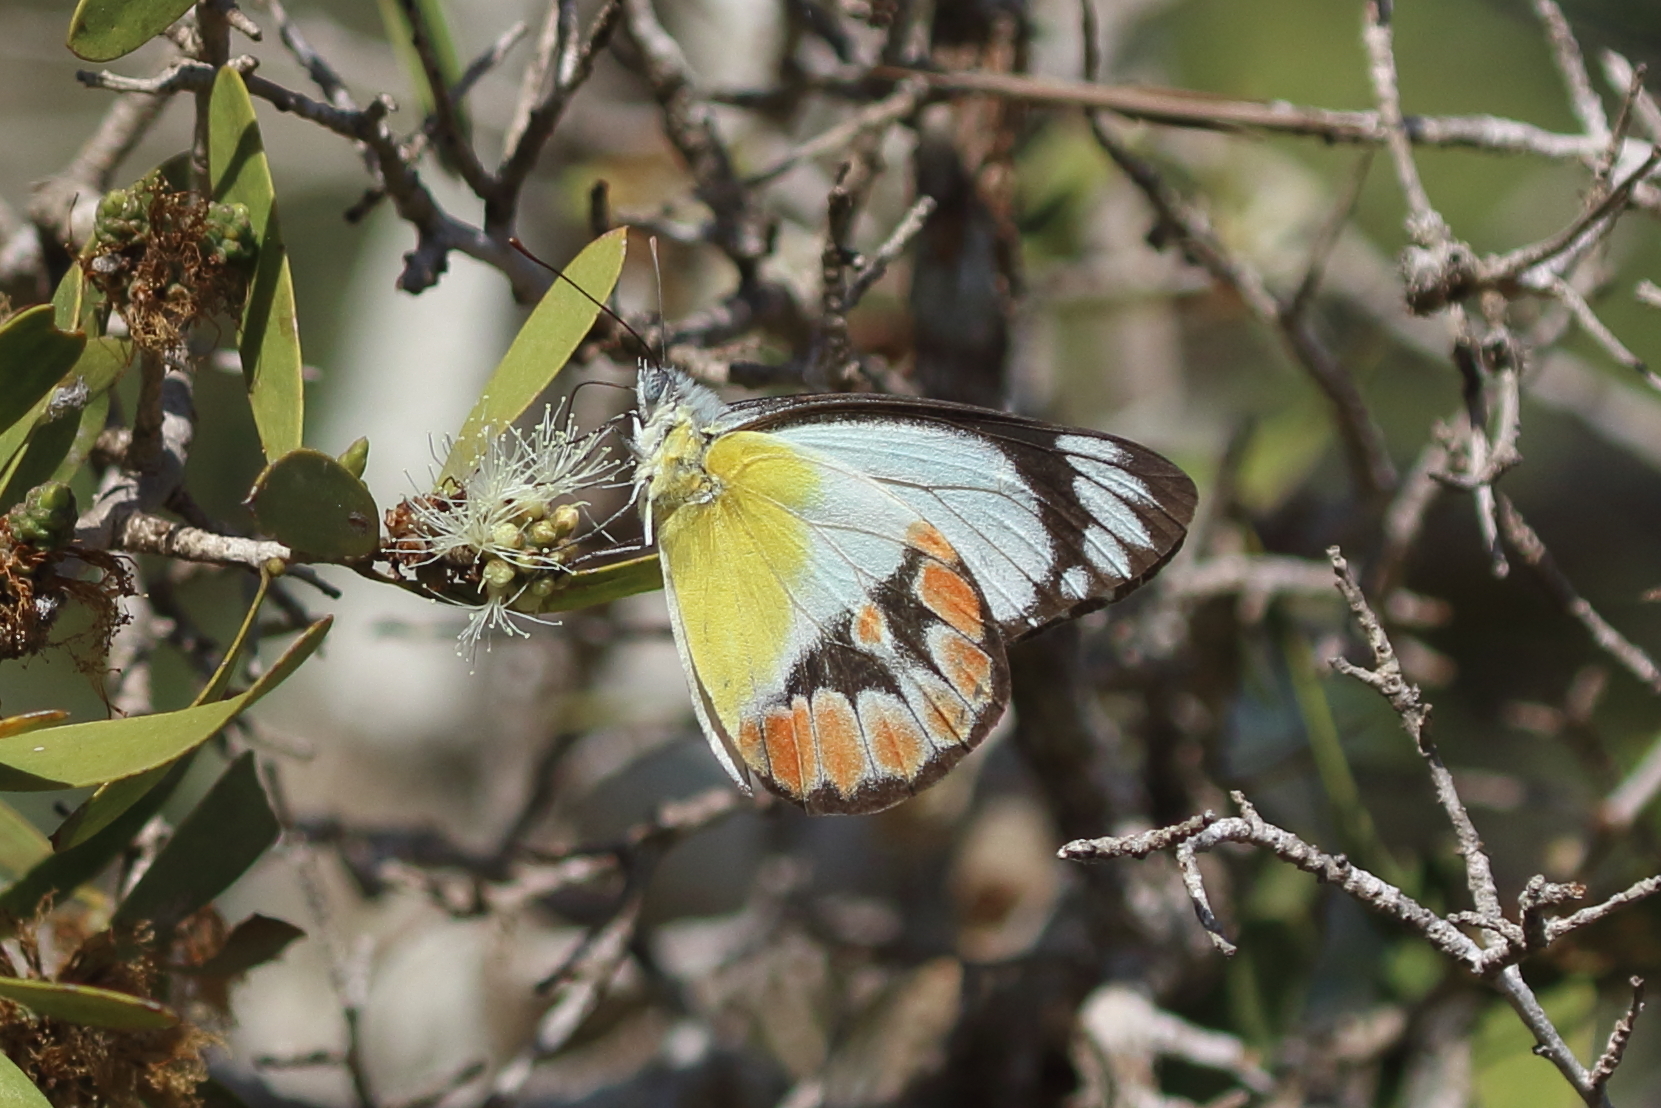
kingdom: Animalia
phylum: Arthropoda
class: Insecta
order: Lepidoptera
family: Pieridae
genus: Delias
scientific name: Delias argenthona
